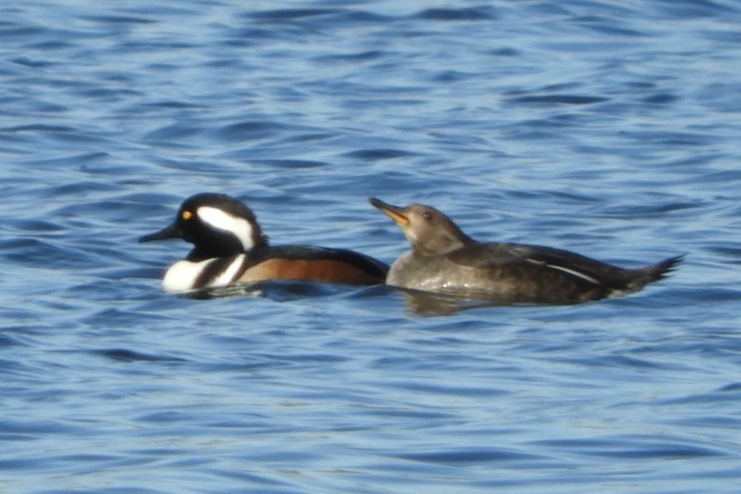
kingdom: Animalia
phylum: Chordata
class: Aves
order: Anseriformes
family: Anatidae
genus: Lophodytes
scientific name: Lophodytes cucullatus
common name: Hooded merganser
